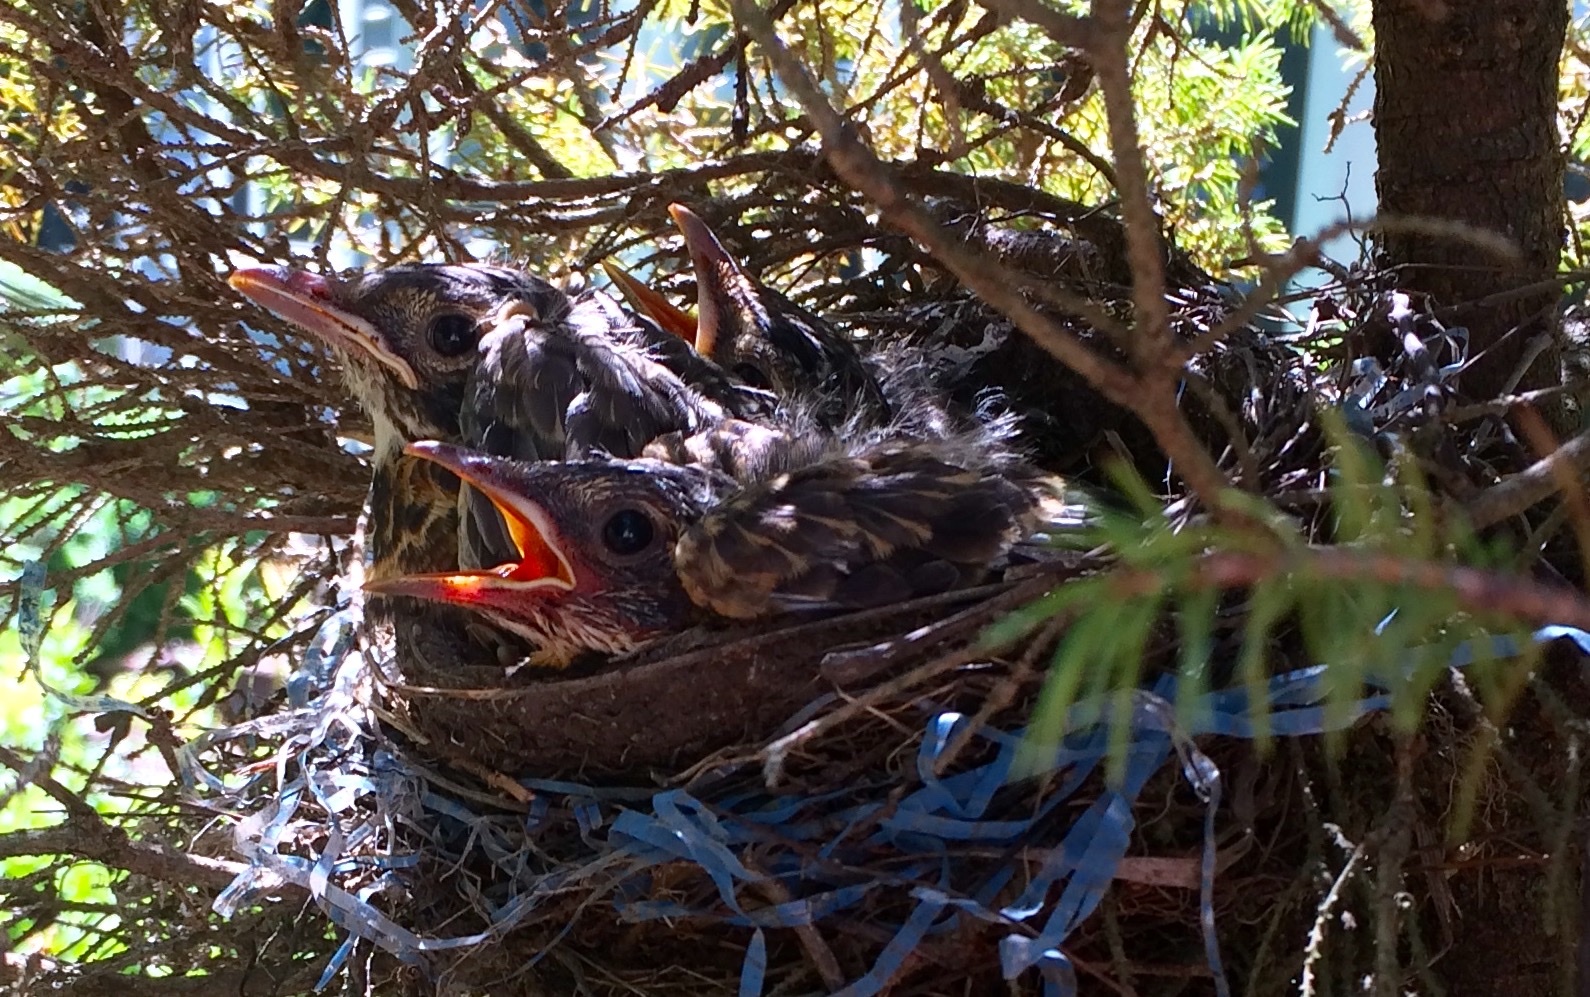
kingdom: Animalia
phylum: Chordata
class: Aves
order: Passeriformes
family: Turdidae
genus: Turdus
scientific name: Turdus migratorius
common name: American robin
